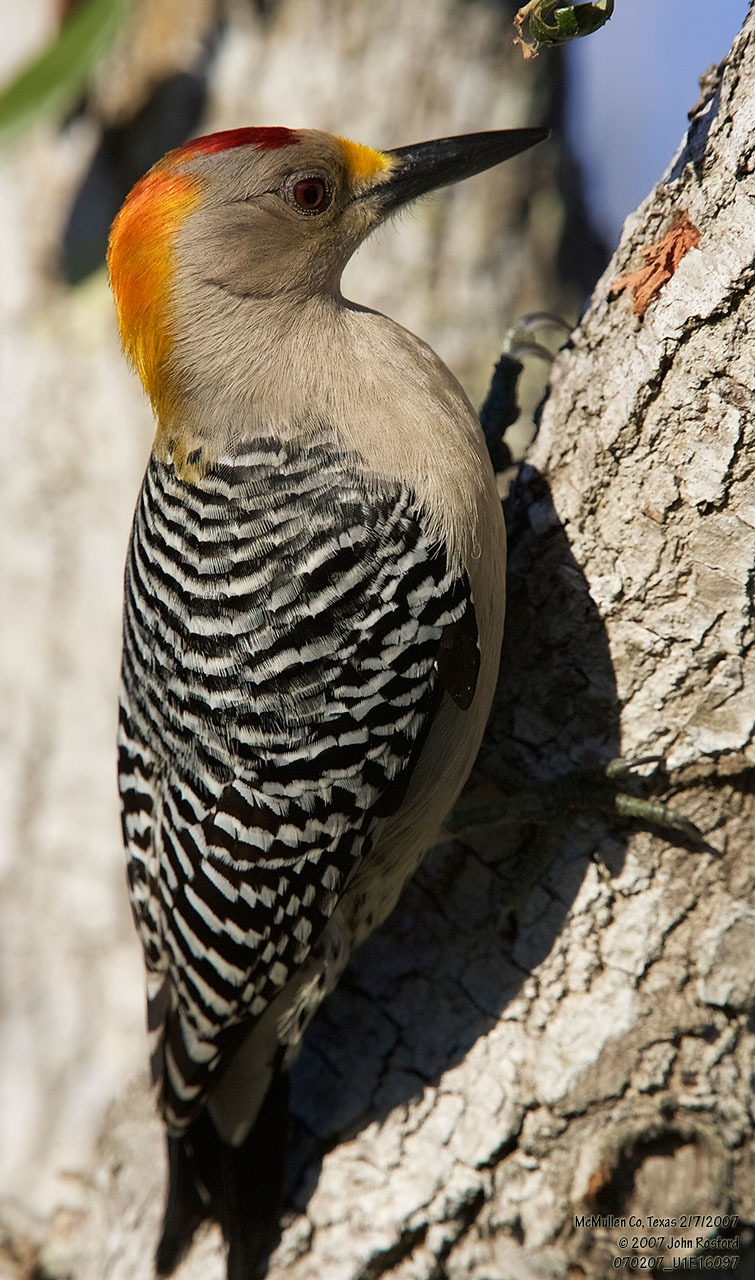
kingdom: Animalia
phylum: Chordata
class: Aves
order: Piciformes
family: Picidae
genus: Melanerpes
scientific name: Melanerpes aurifrons
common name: Golden-fronted woodpecker
